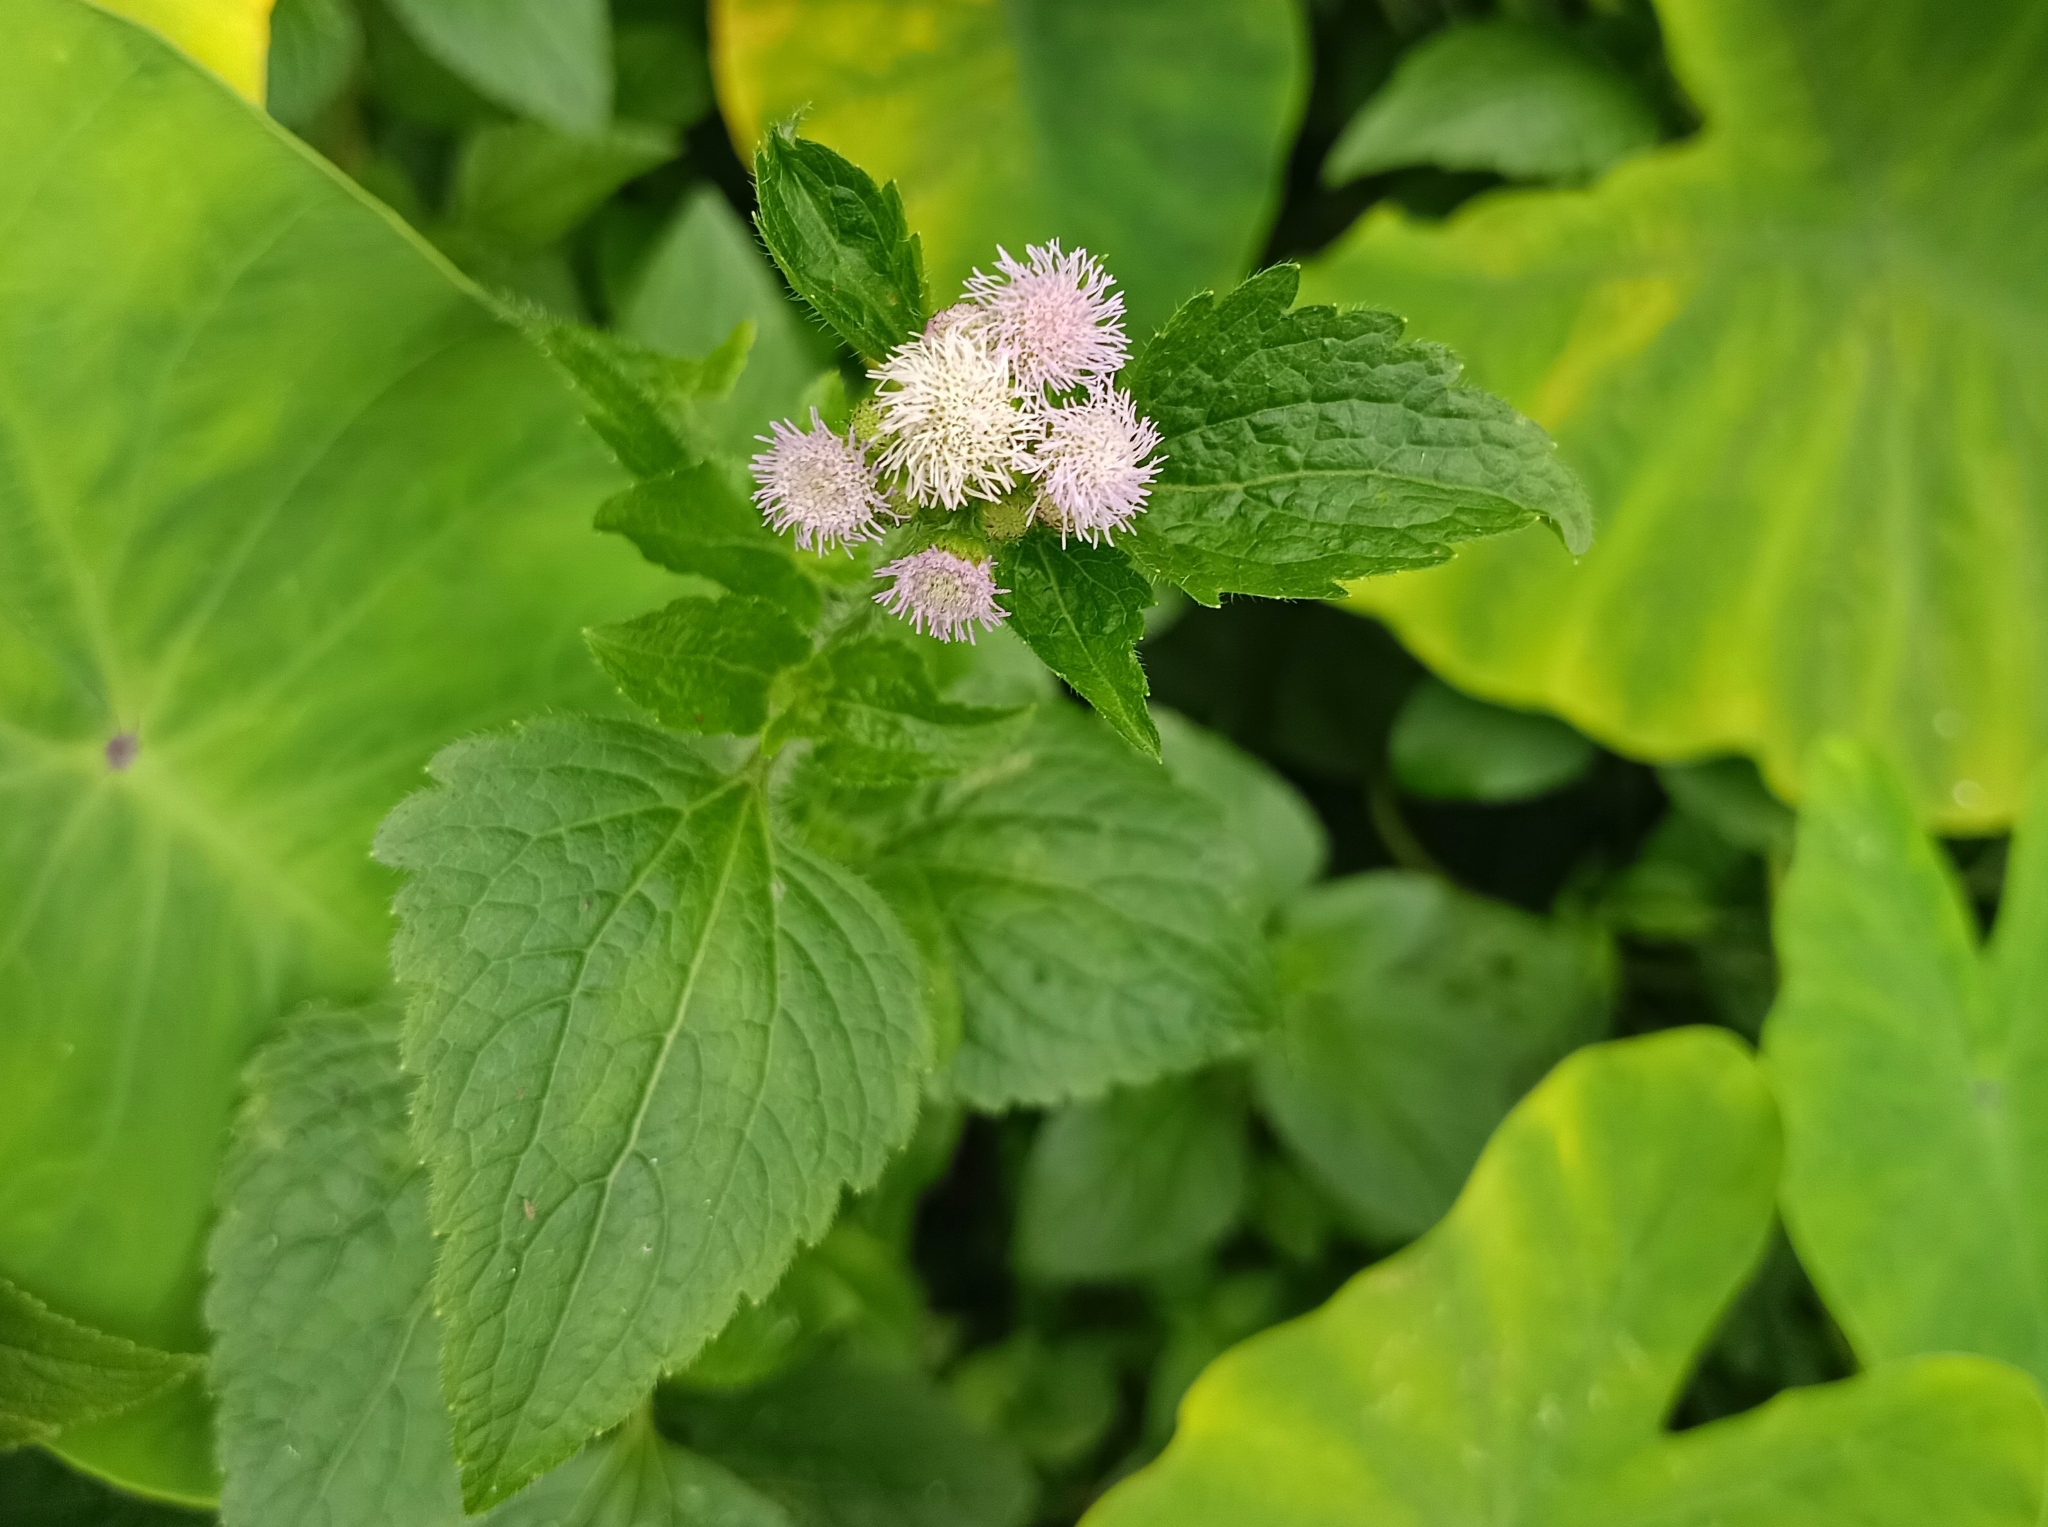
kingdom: Plantae
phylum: Tracheophyta
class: Magnoliopsida
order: Asterales
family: Asteraceae
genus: Ageratum
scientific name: Ageratum conyzoides
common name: Tropical whiteweed
